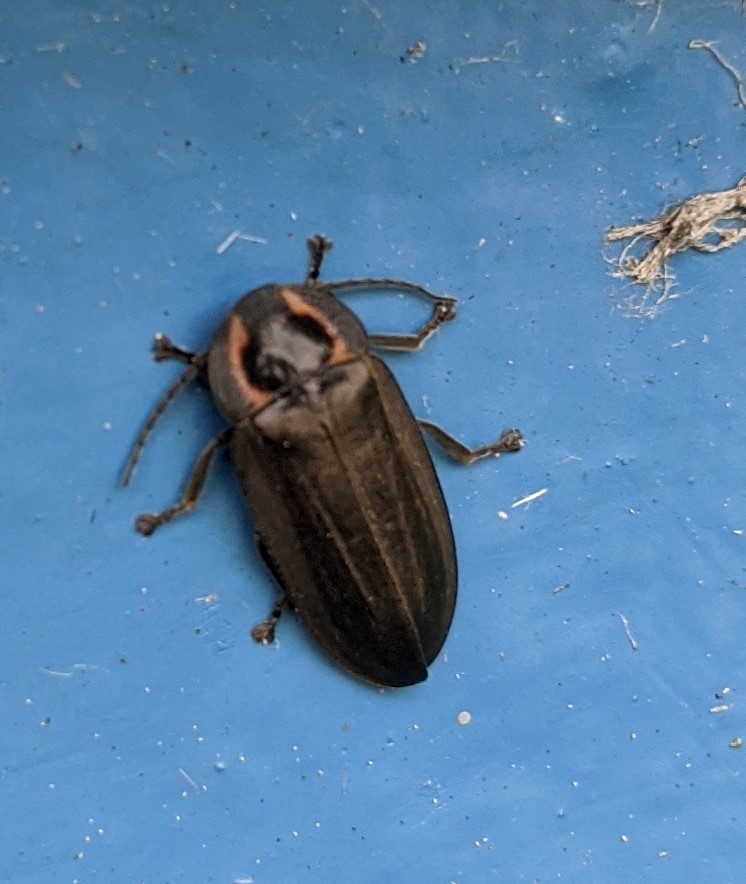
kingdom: Animalia
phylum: Arthropoda
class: Insecta
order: Coleoptera
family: Lampyridae
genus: Photinus
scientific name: Photinus corrusca
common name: Winter firefly
